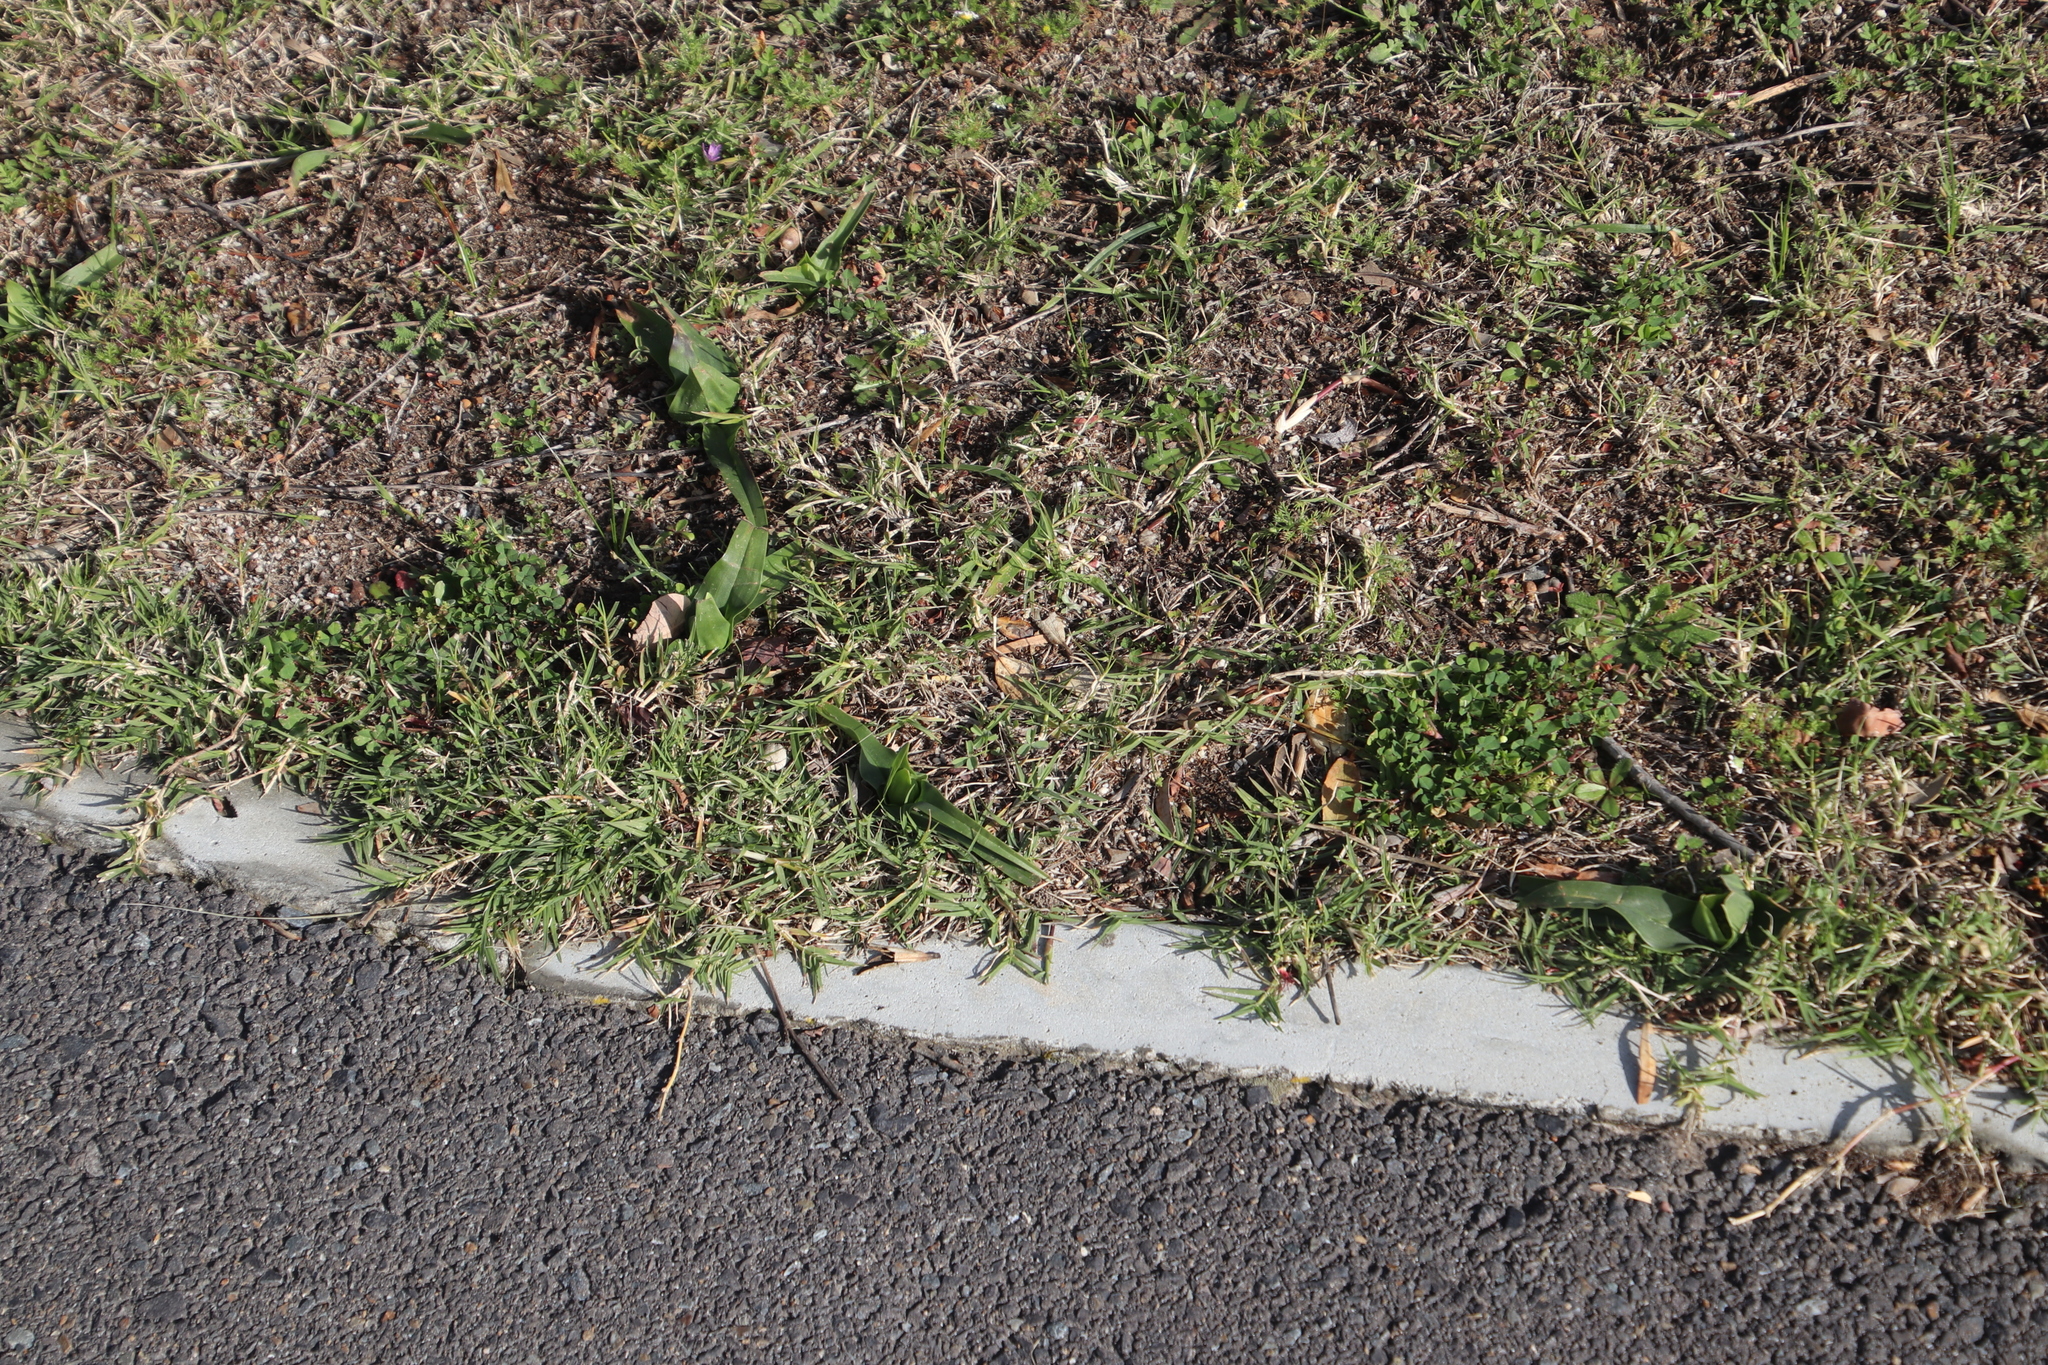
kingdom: Plantae
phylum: Tracheophyta
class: Liliopsida
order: Liliales
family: Colchicaceae
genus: Colchicum
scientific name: Colchicum eucomoides
